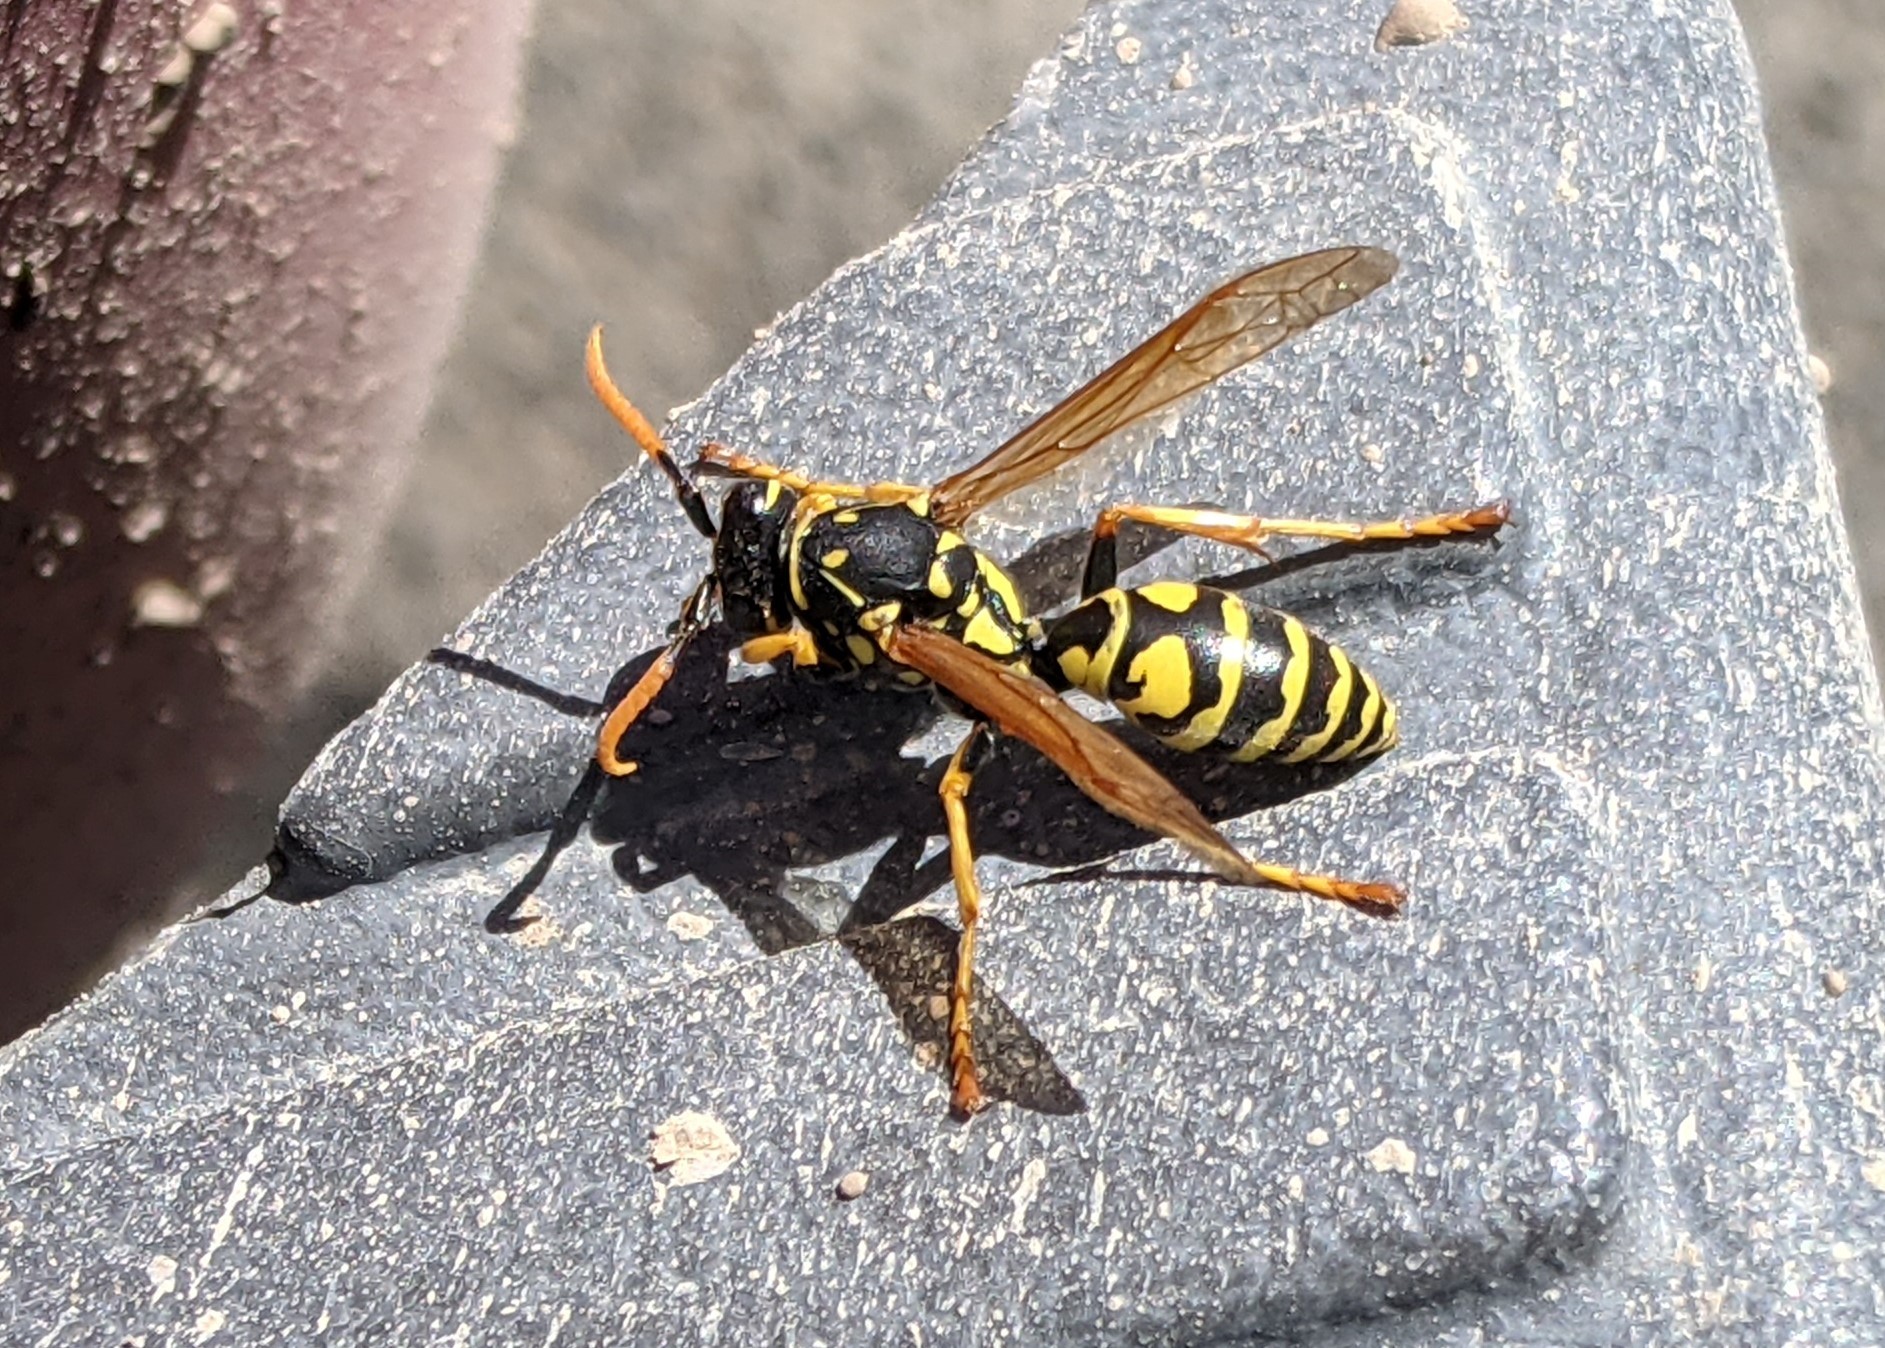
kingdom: Animalia
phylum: Arthropoda
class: Insecta
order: Hymenoptera
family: Eumenidae
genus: Polistes
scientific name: Polistes dominula
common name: Paper wasp
